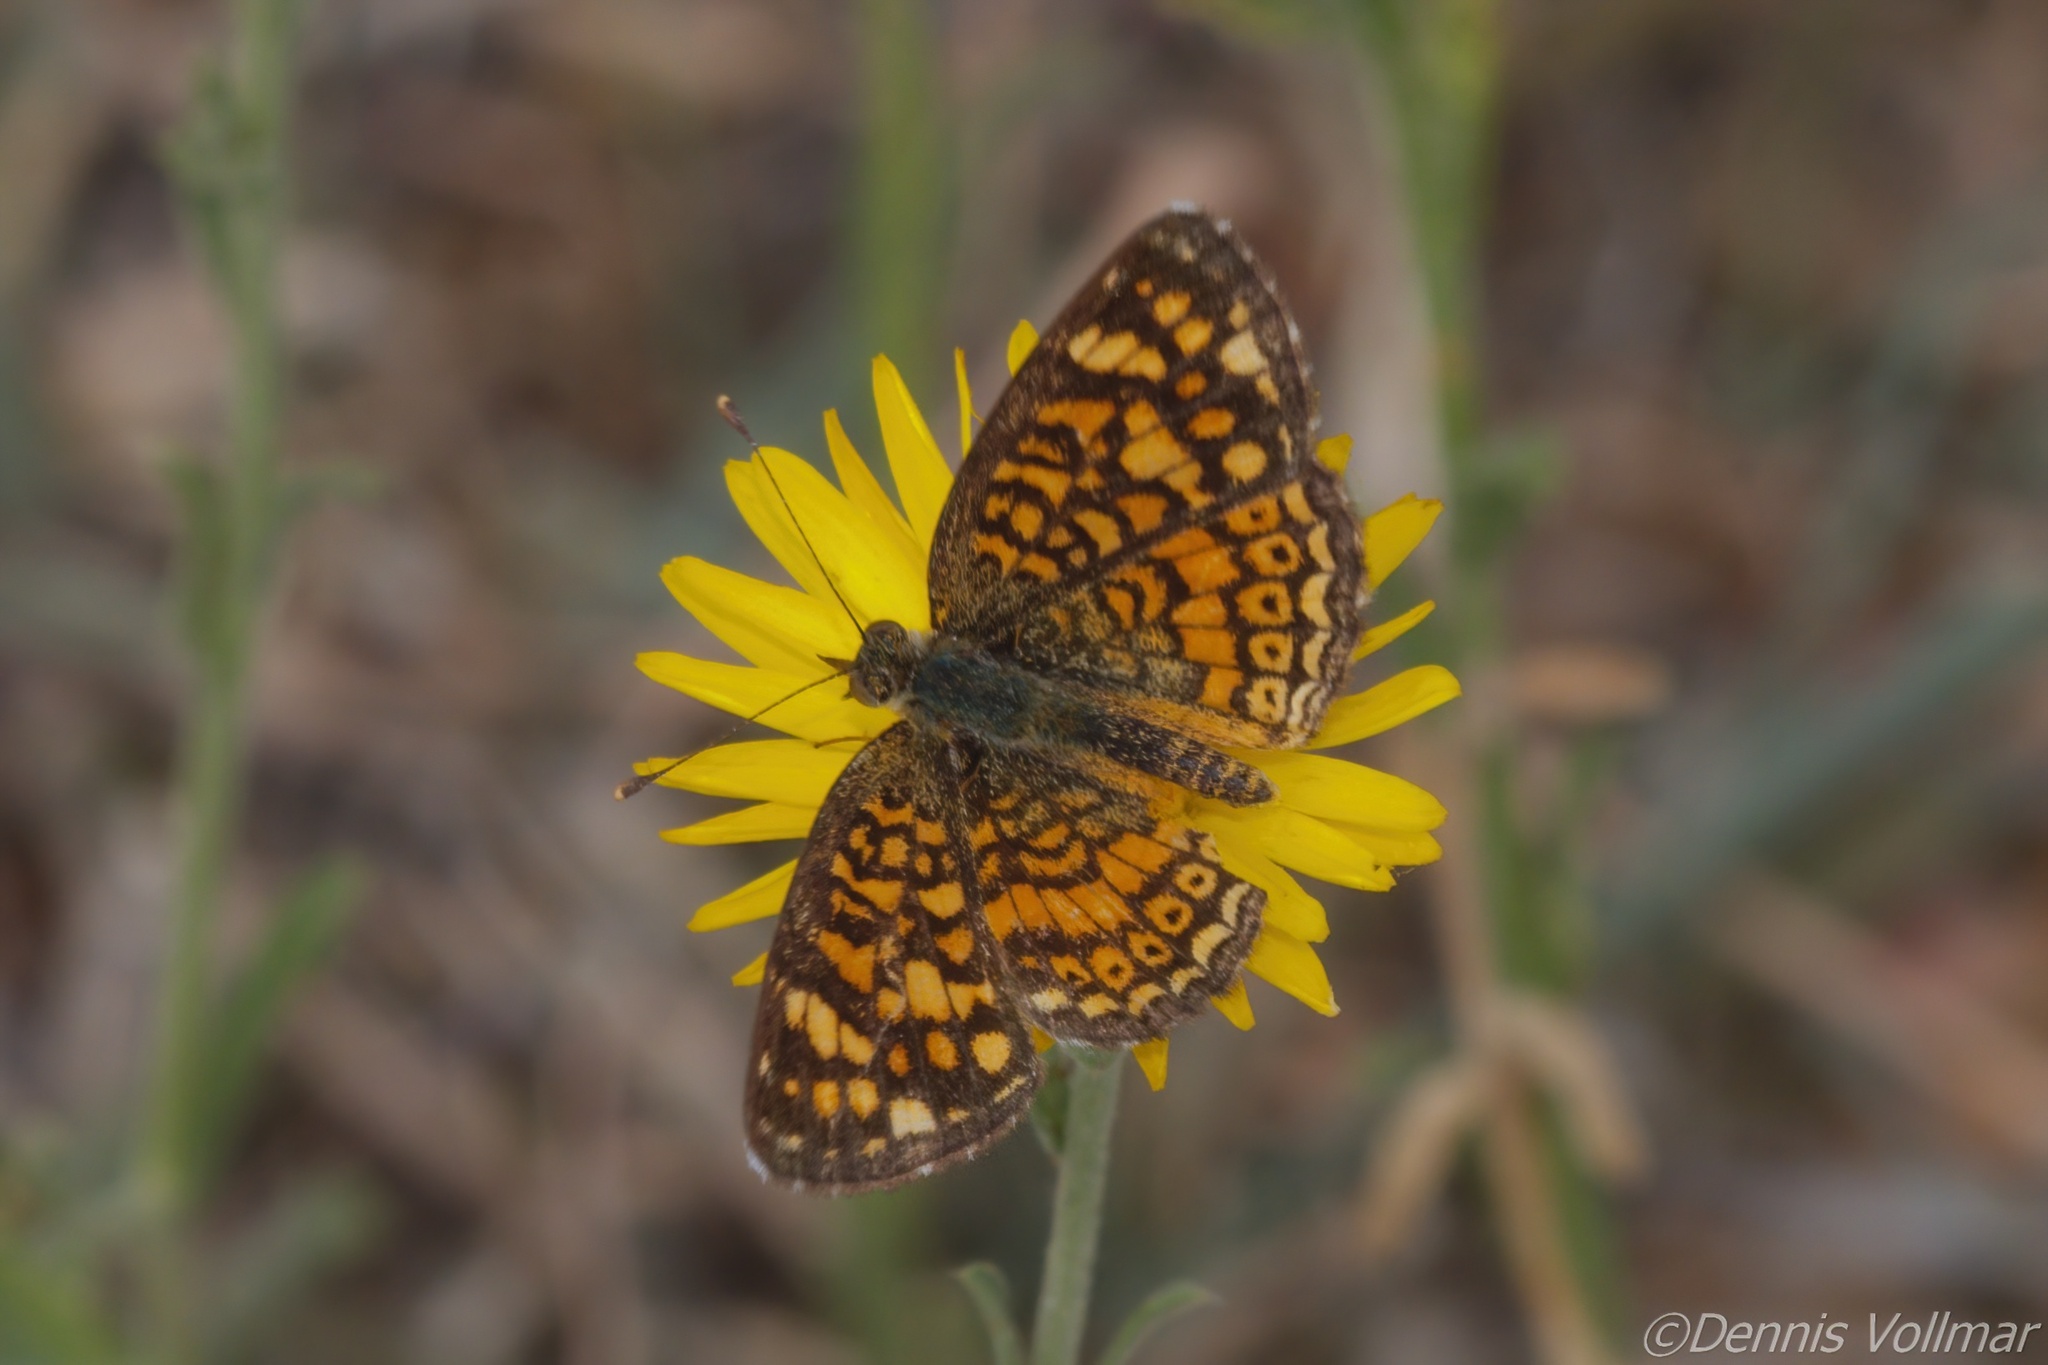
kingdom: Animalia
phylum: Arthropoda
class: Insecta
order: Lepidoptera
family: Nymphalidae
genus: Phyciodes
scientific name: Phyciodes vesta
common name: Vesta crescent
